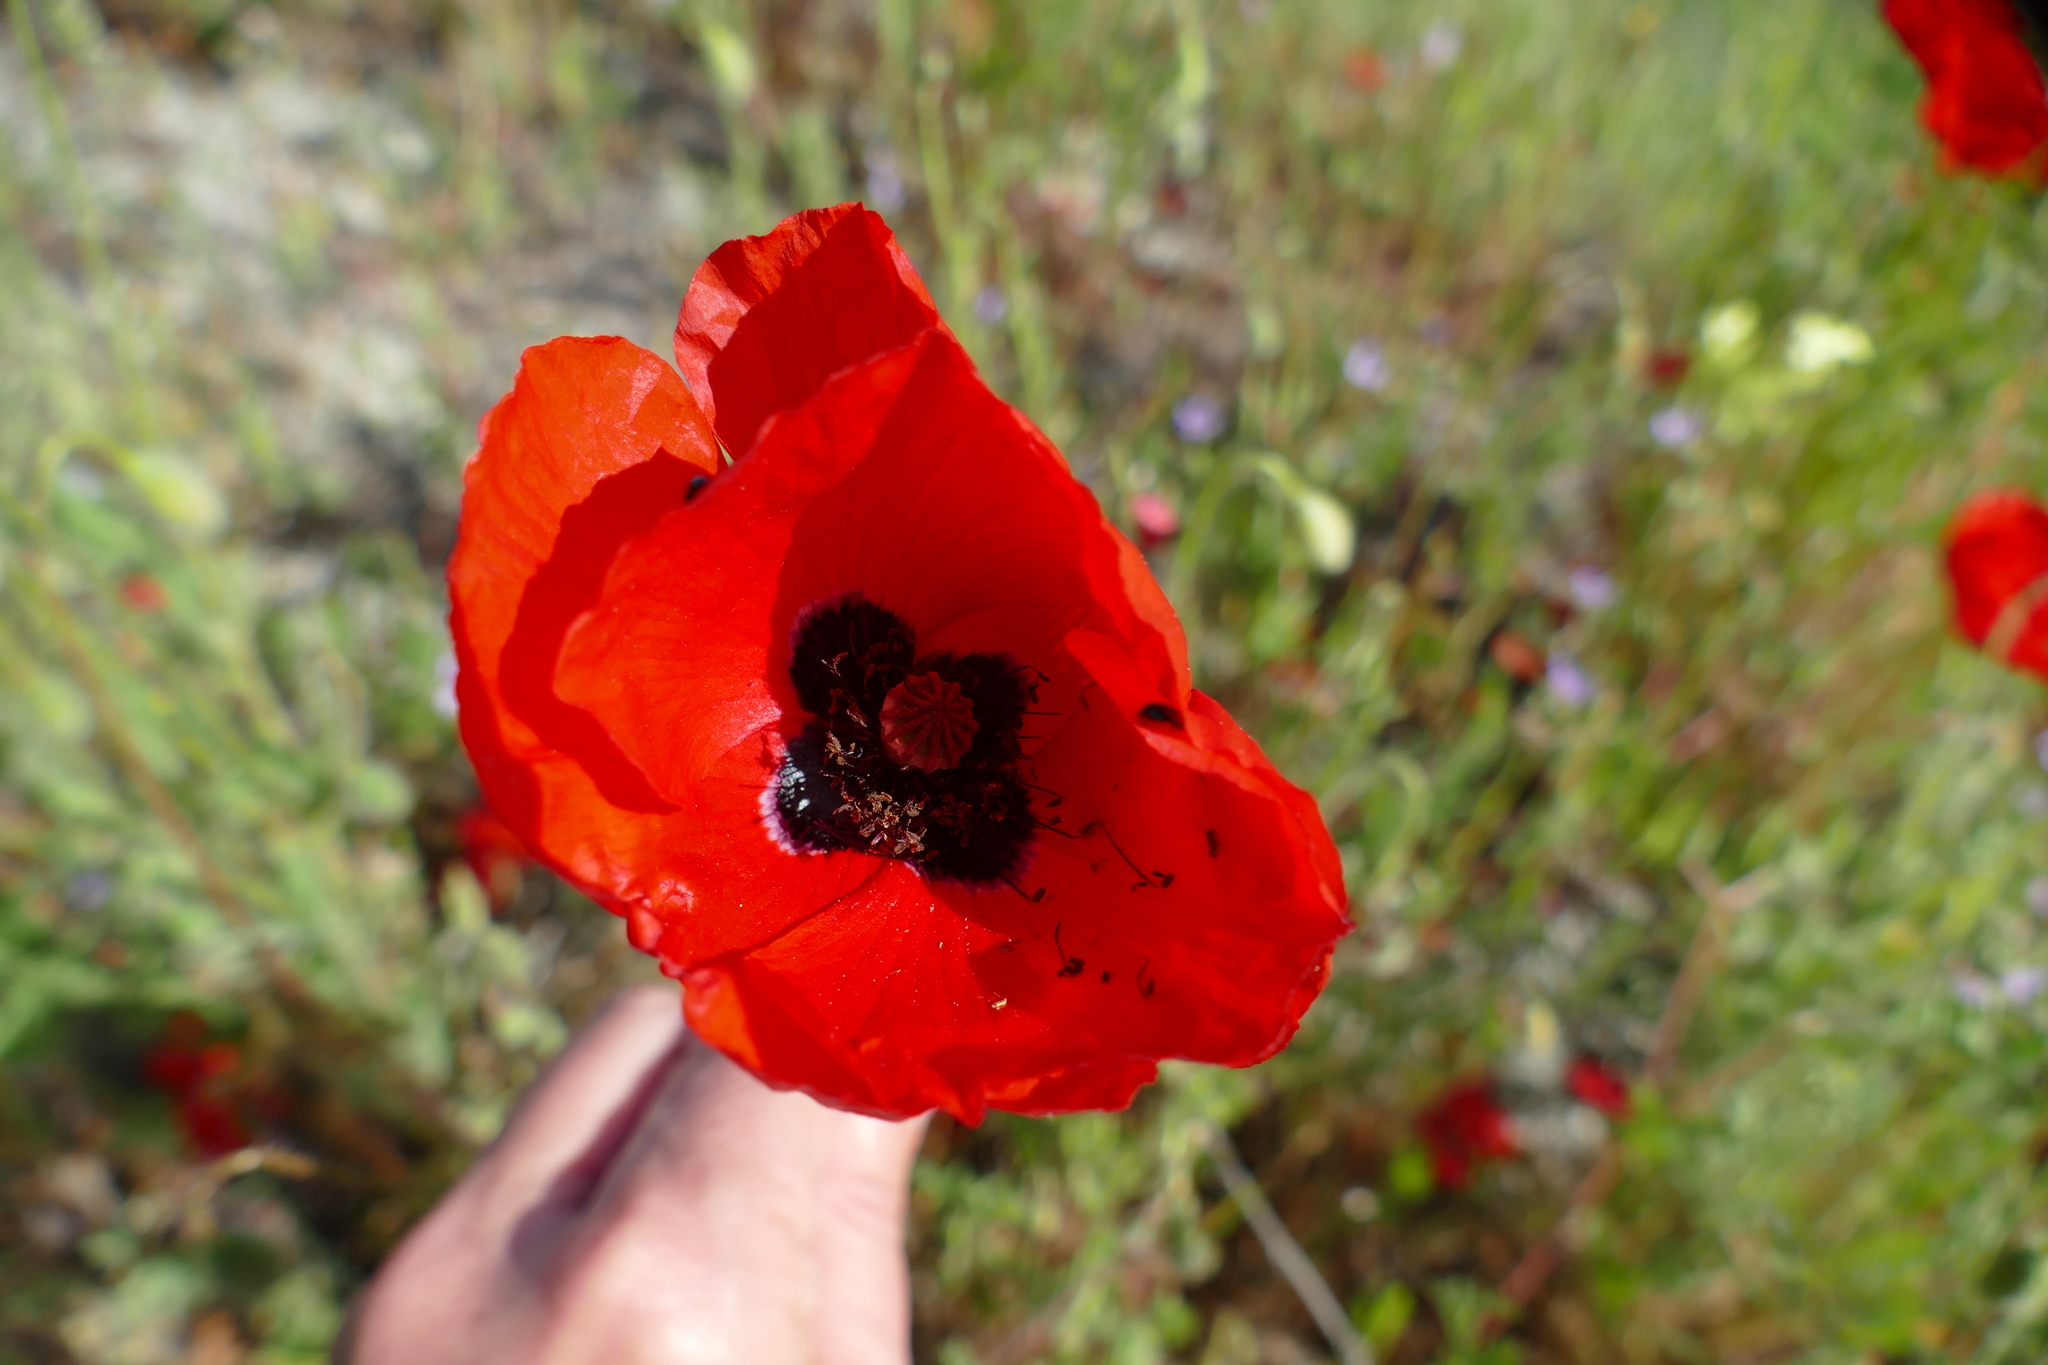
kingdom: Plantae
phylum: Tracheophyta
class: Magnoliopsida
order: Ranunculales
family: Papaveraceae
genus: Papaver
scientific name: Papaver rhoeas
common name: Corn poppy
